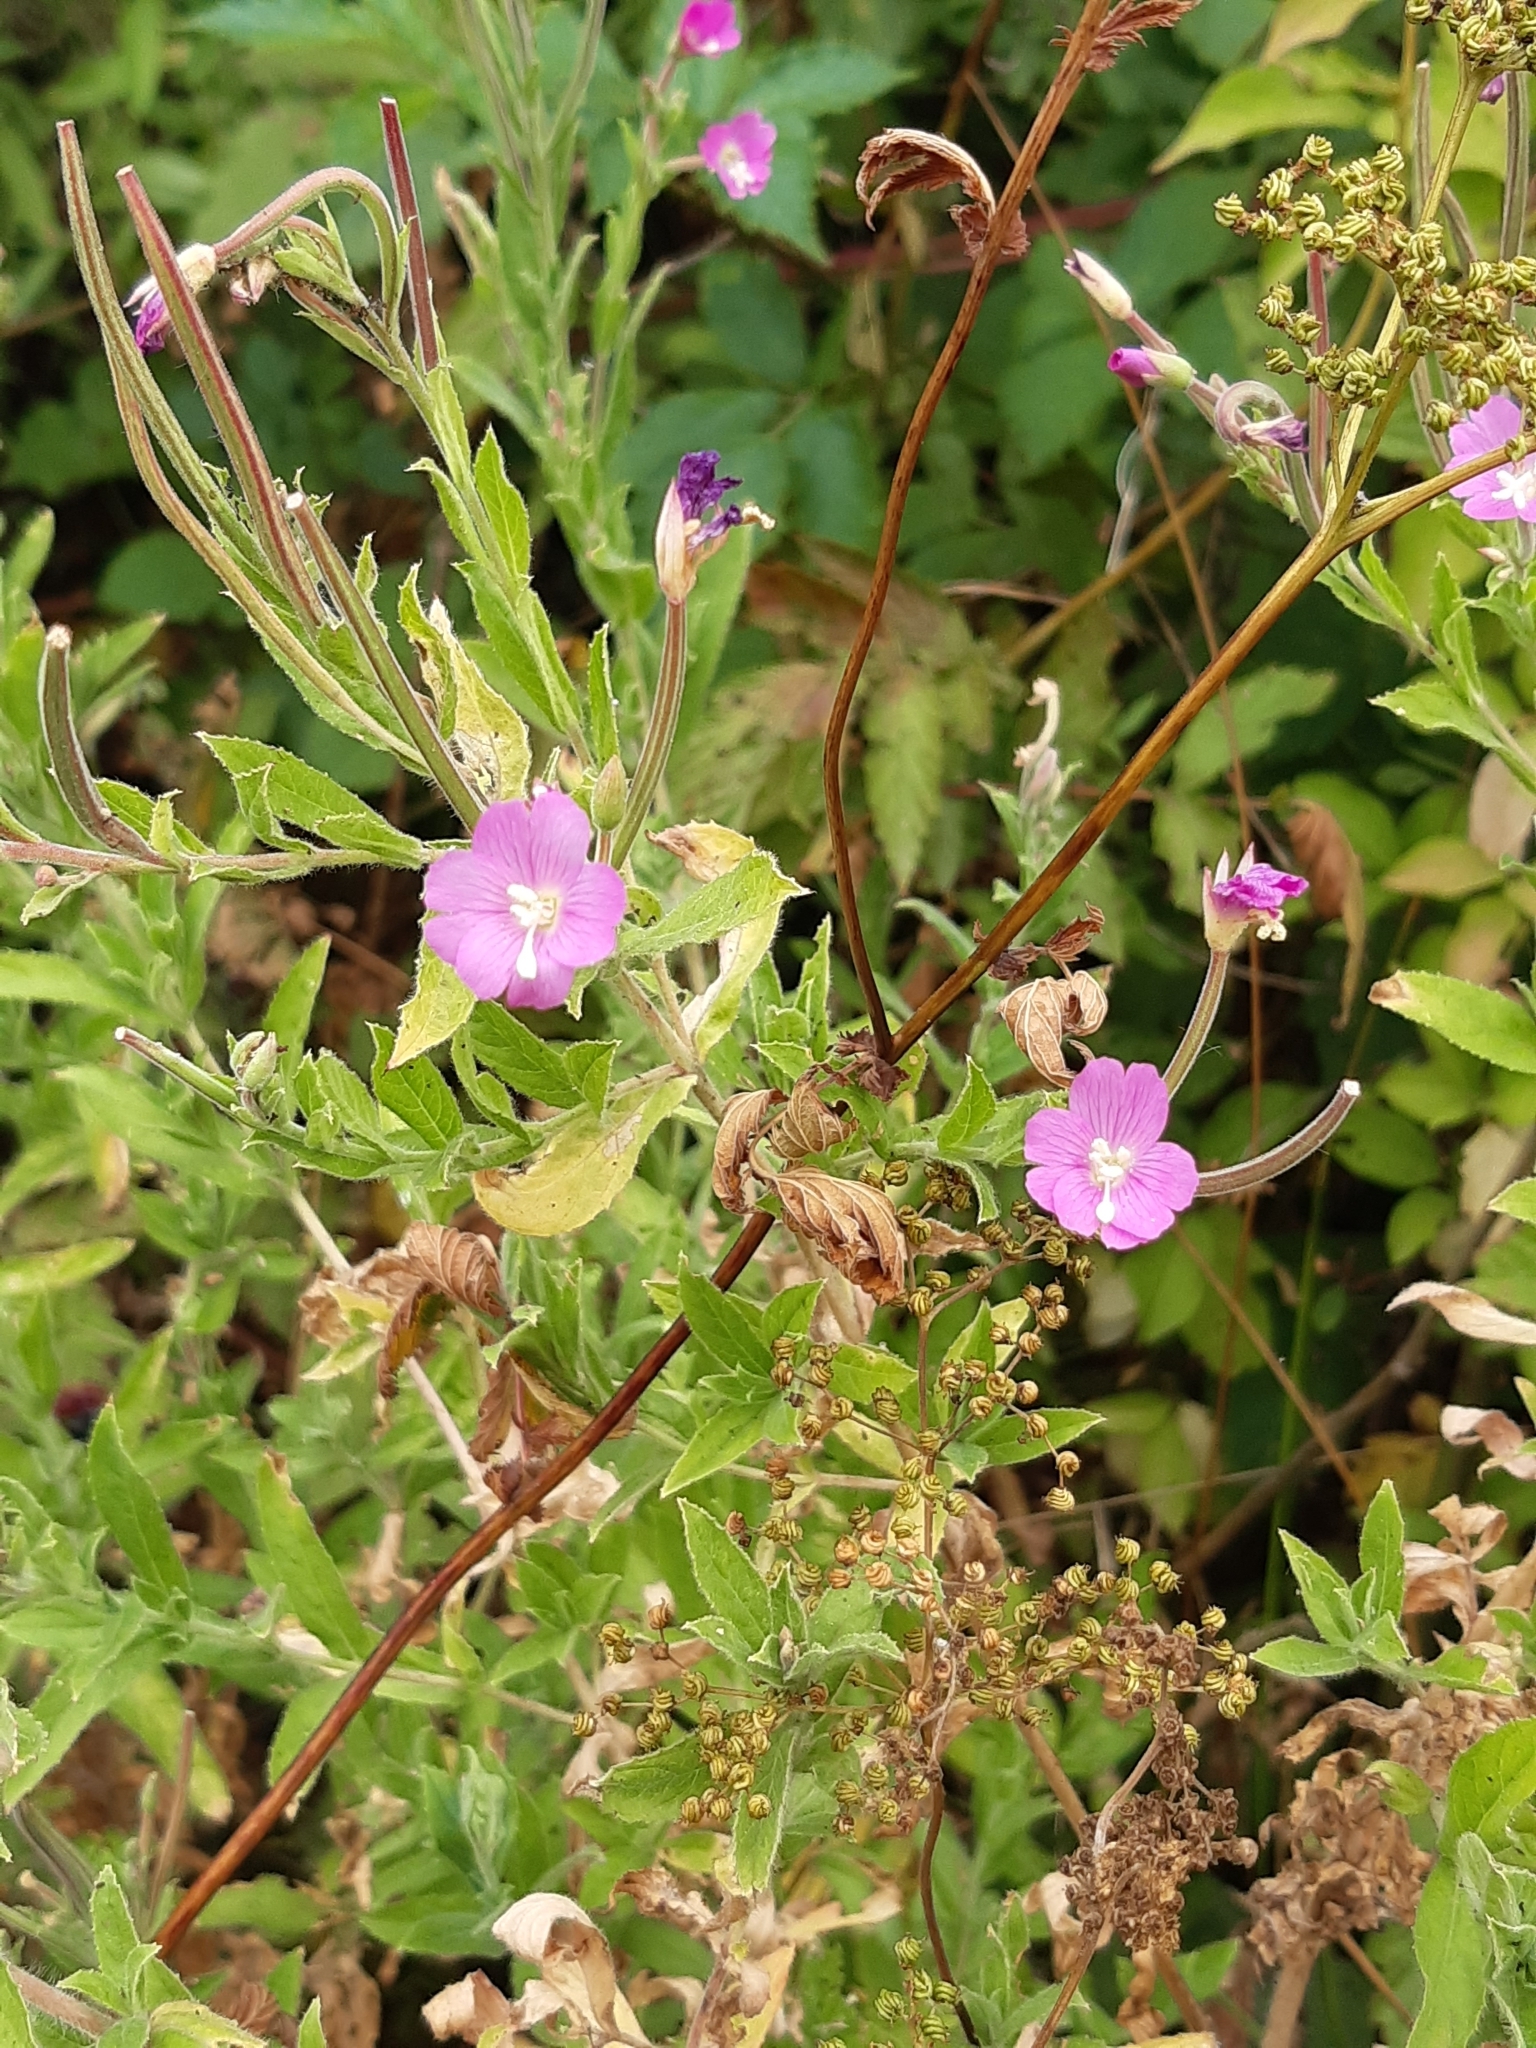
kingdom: Plantae
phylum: Tracheophyta
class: Magnoliopsida
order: Myrtales
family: Onagraceae
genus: Epilobium
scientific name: Epilobium hirsutum
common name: Great willowherb
